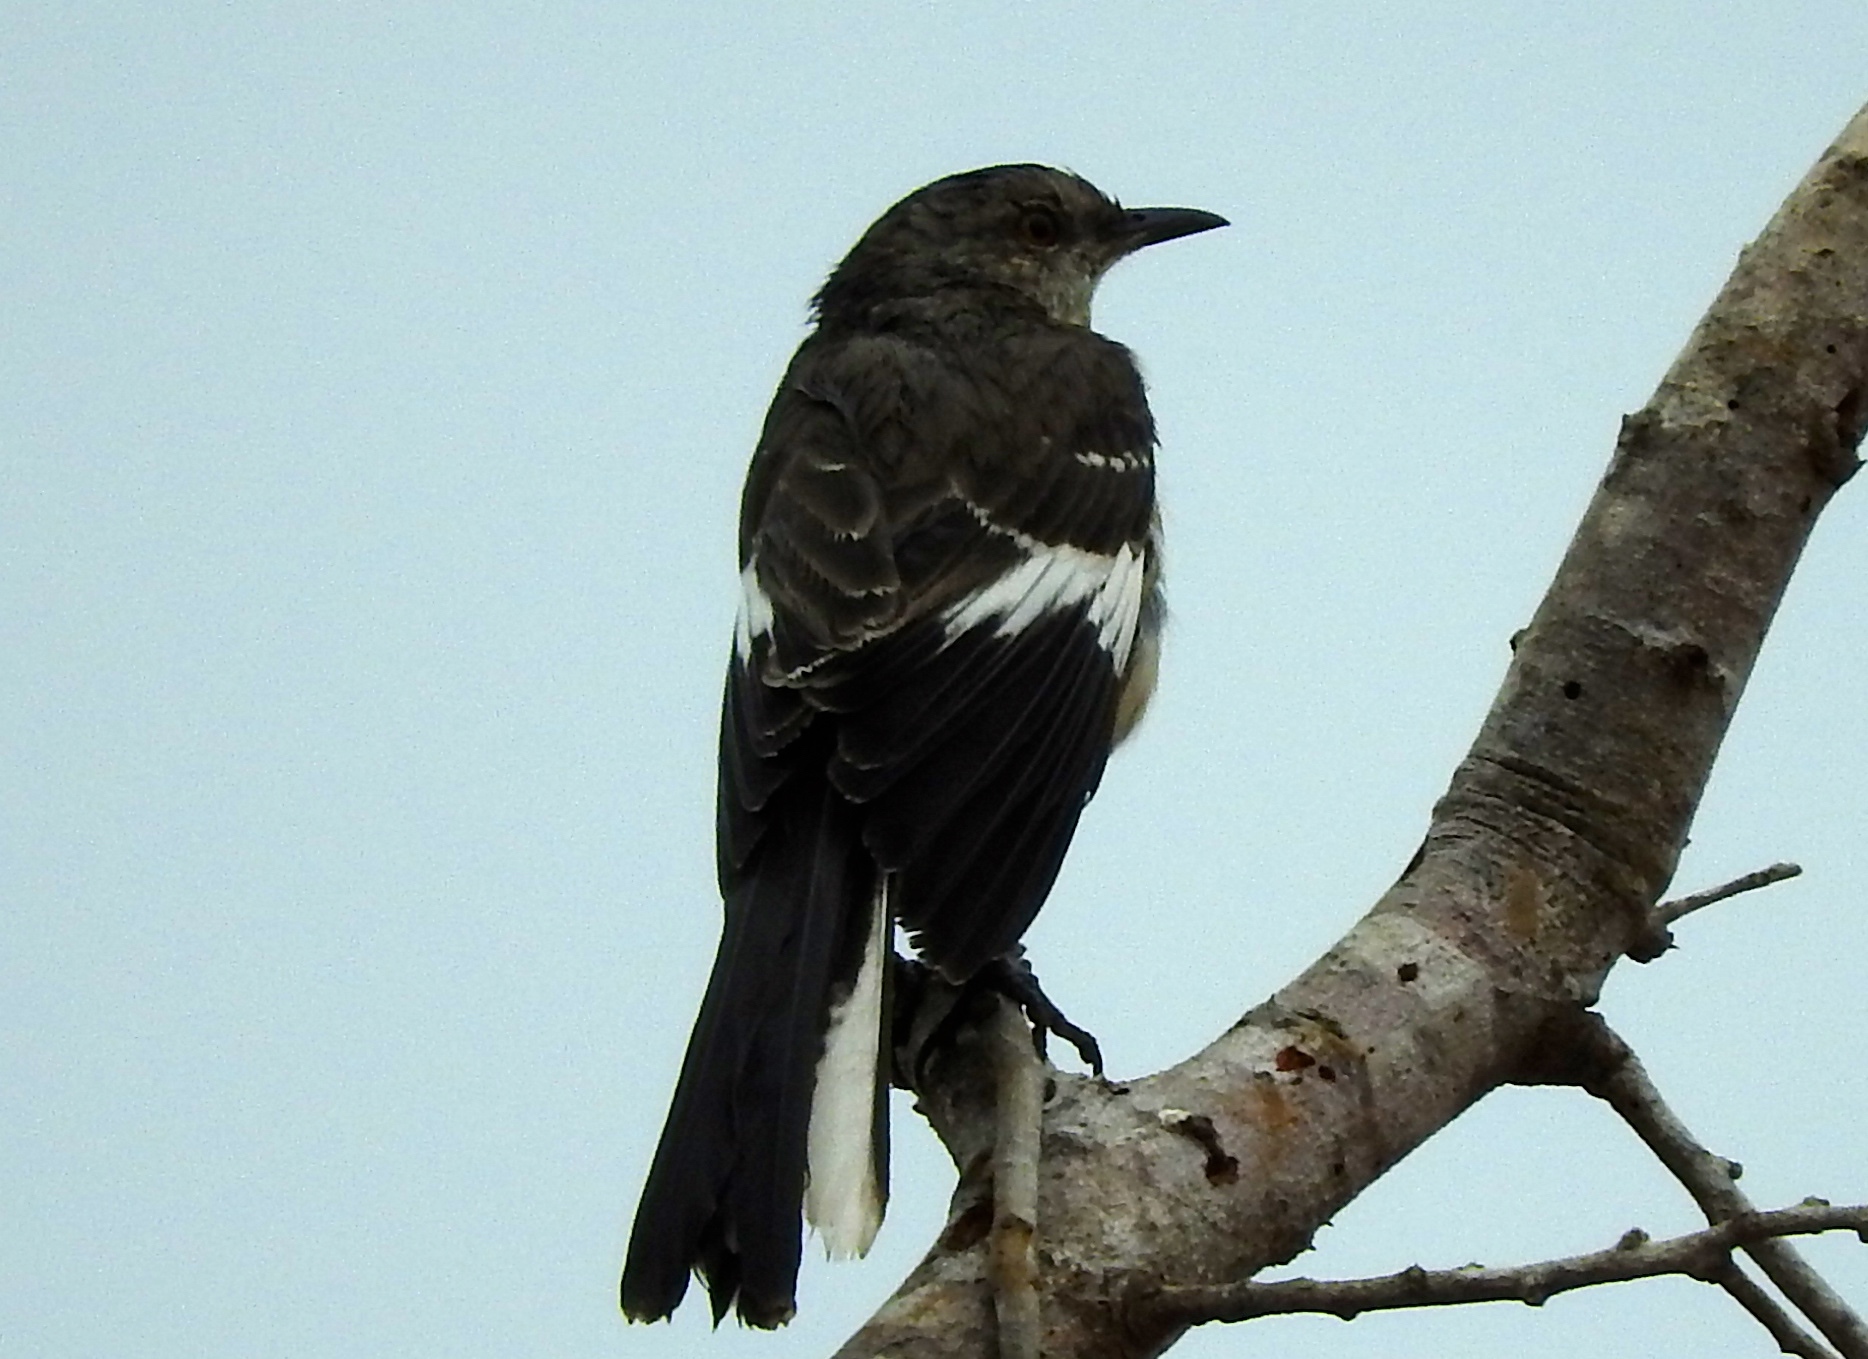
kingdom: Animalia
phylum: Chordata
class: Aves
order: Passeriformes
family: Mimidae
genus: Mimus
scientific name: Mimus polyglottos
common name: Northern mockingbird
